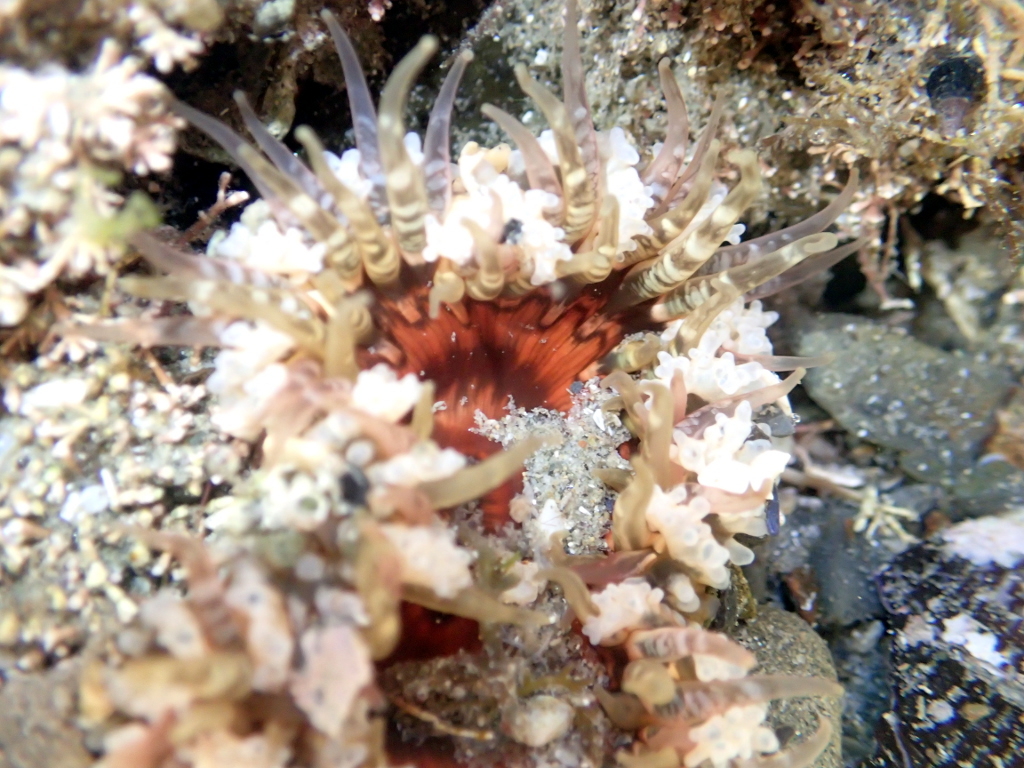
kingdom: Animalia
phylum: Cnidaria
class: Anthozoa
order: Actiniaria
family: Actiniidae
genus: Oulactis
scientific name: Oulactis muscosa
